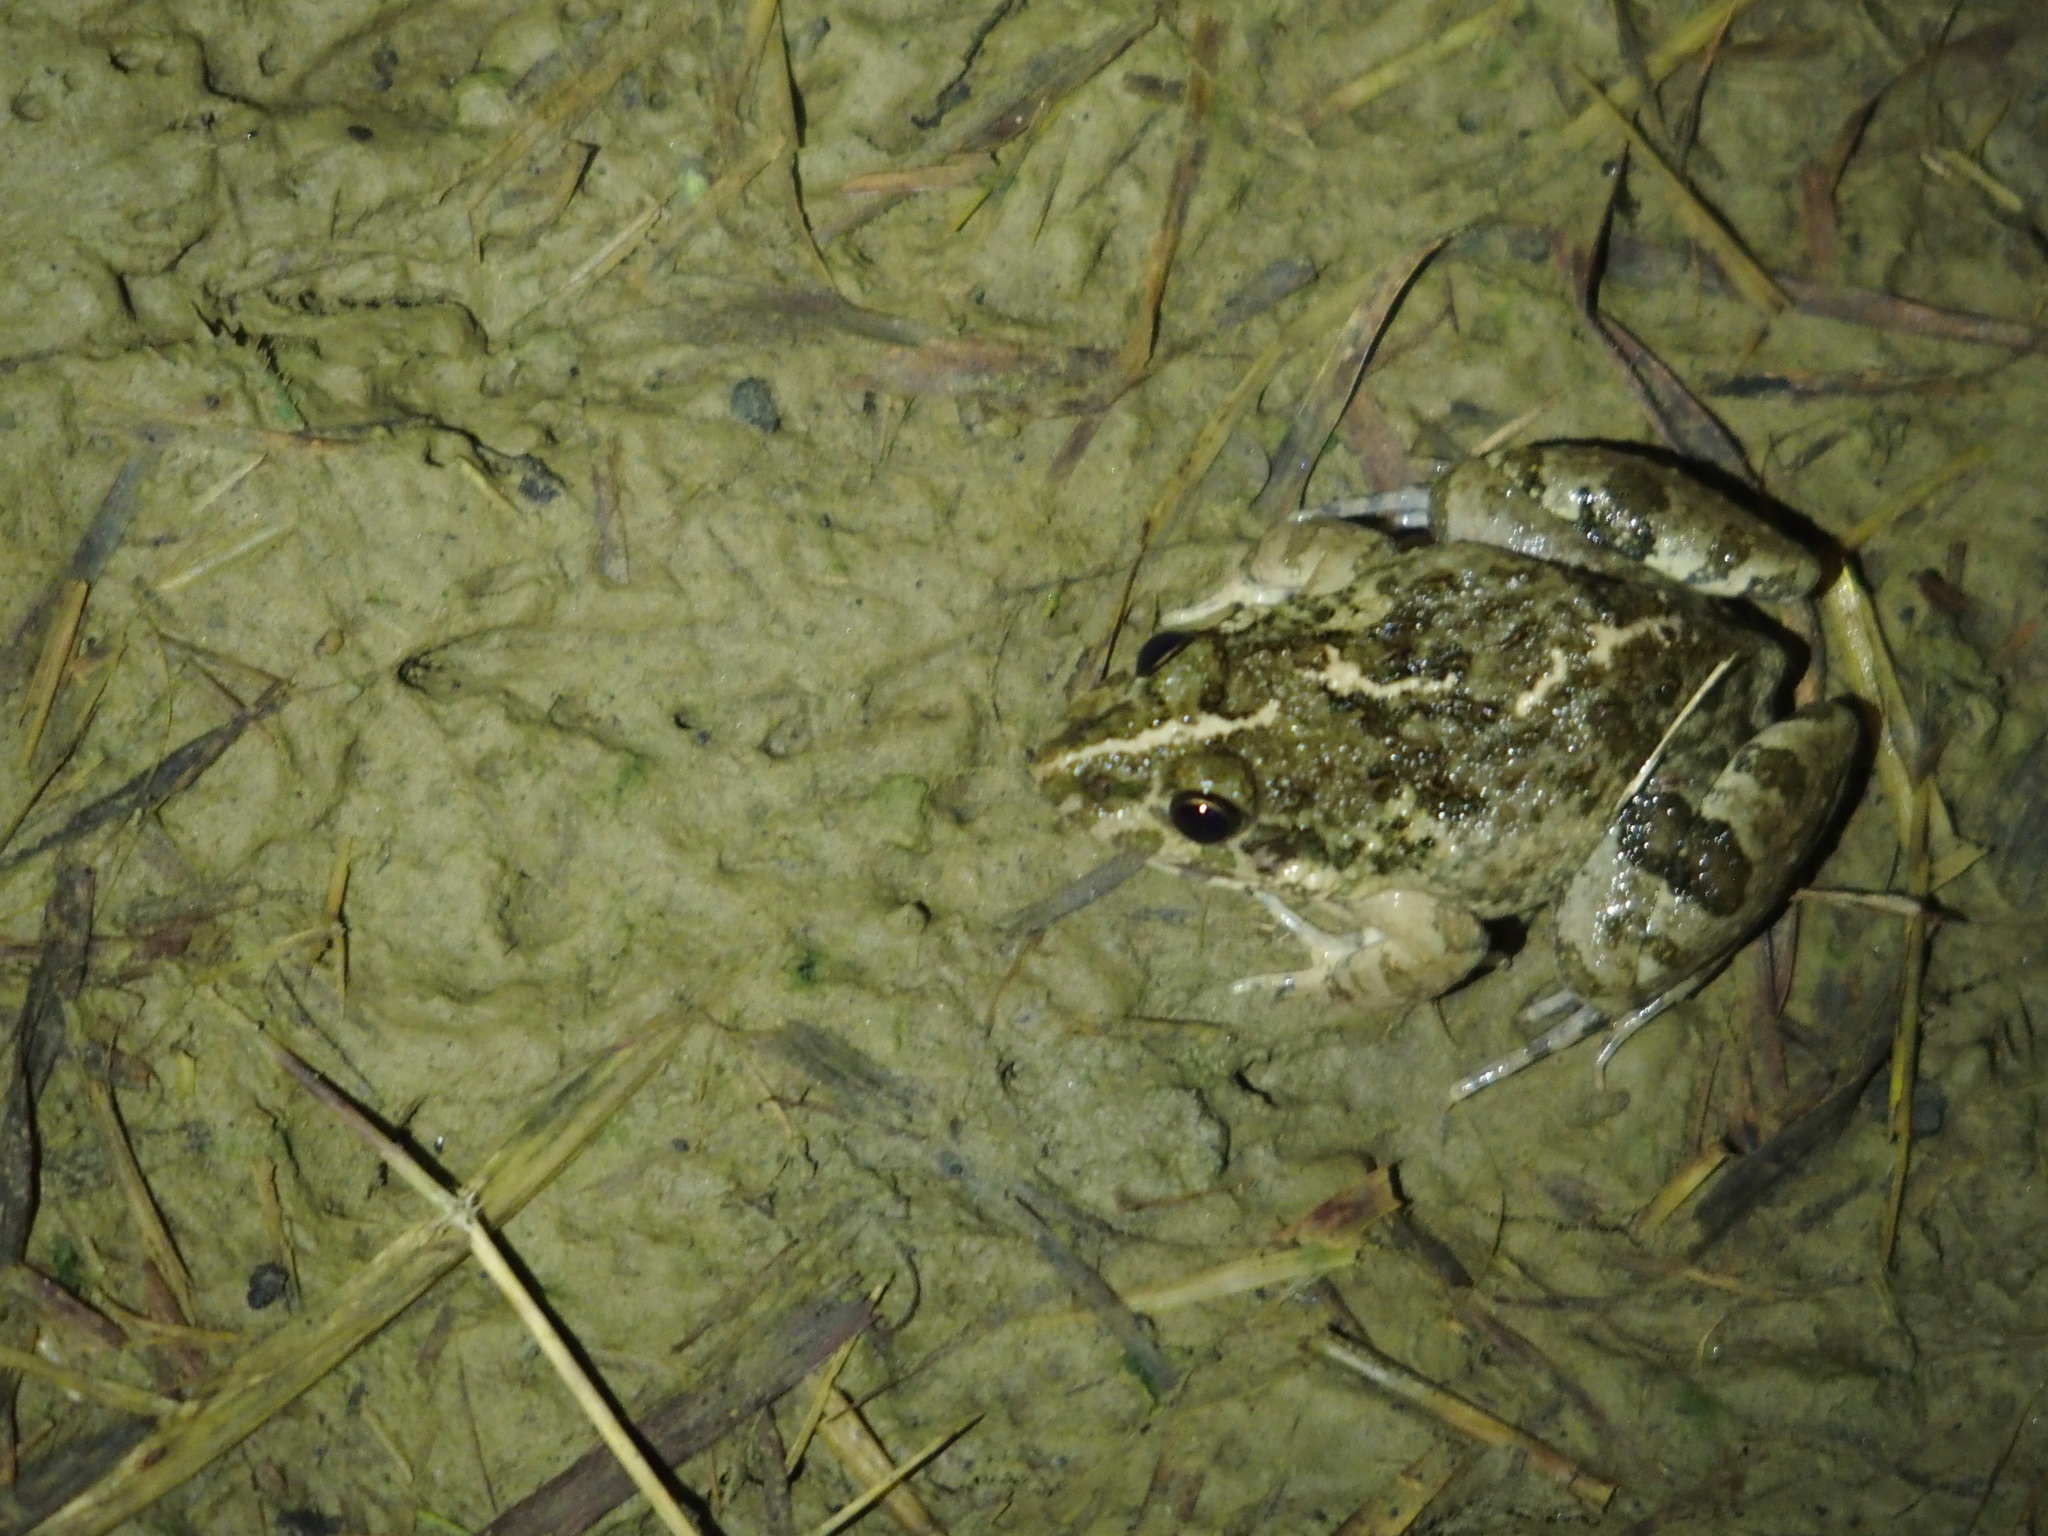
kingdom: Animalia
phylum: Chordata
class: Amphibia
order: Anura
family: Dicroglossidae
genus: Fejervarya
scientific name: Fejervarya limnocharis
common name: Asian grass frog/common pond frog/field frog/grass frog/indian rice frog
